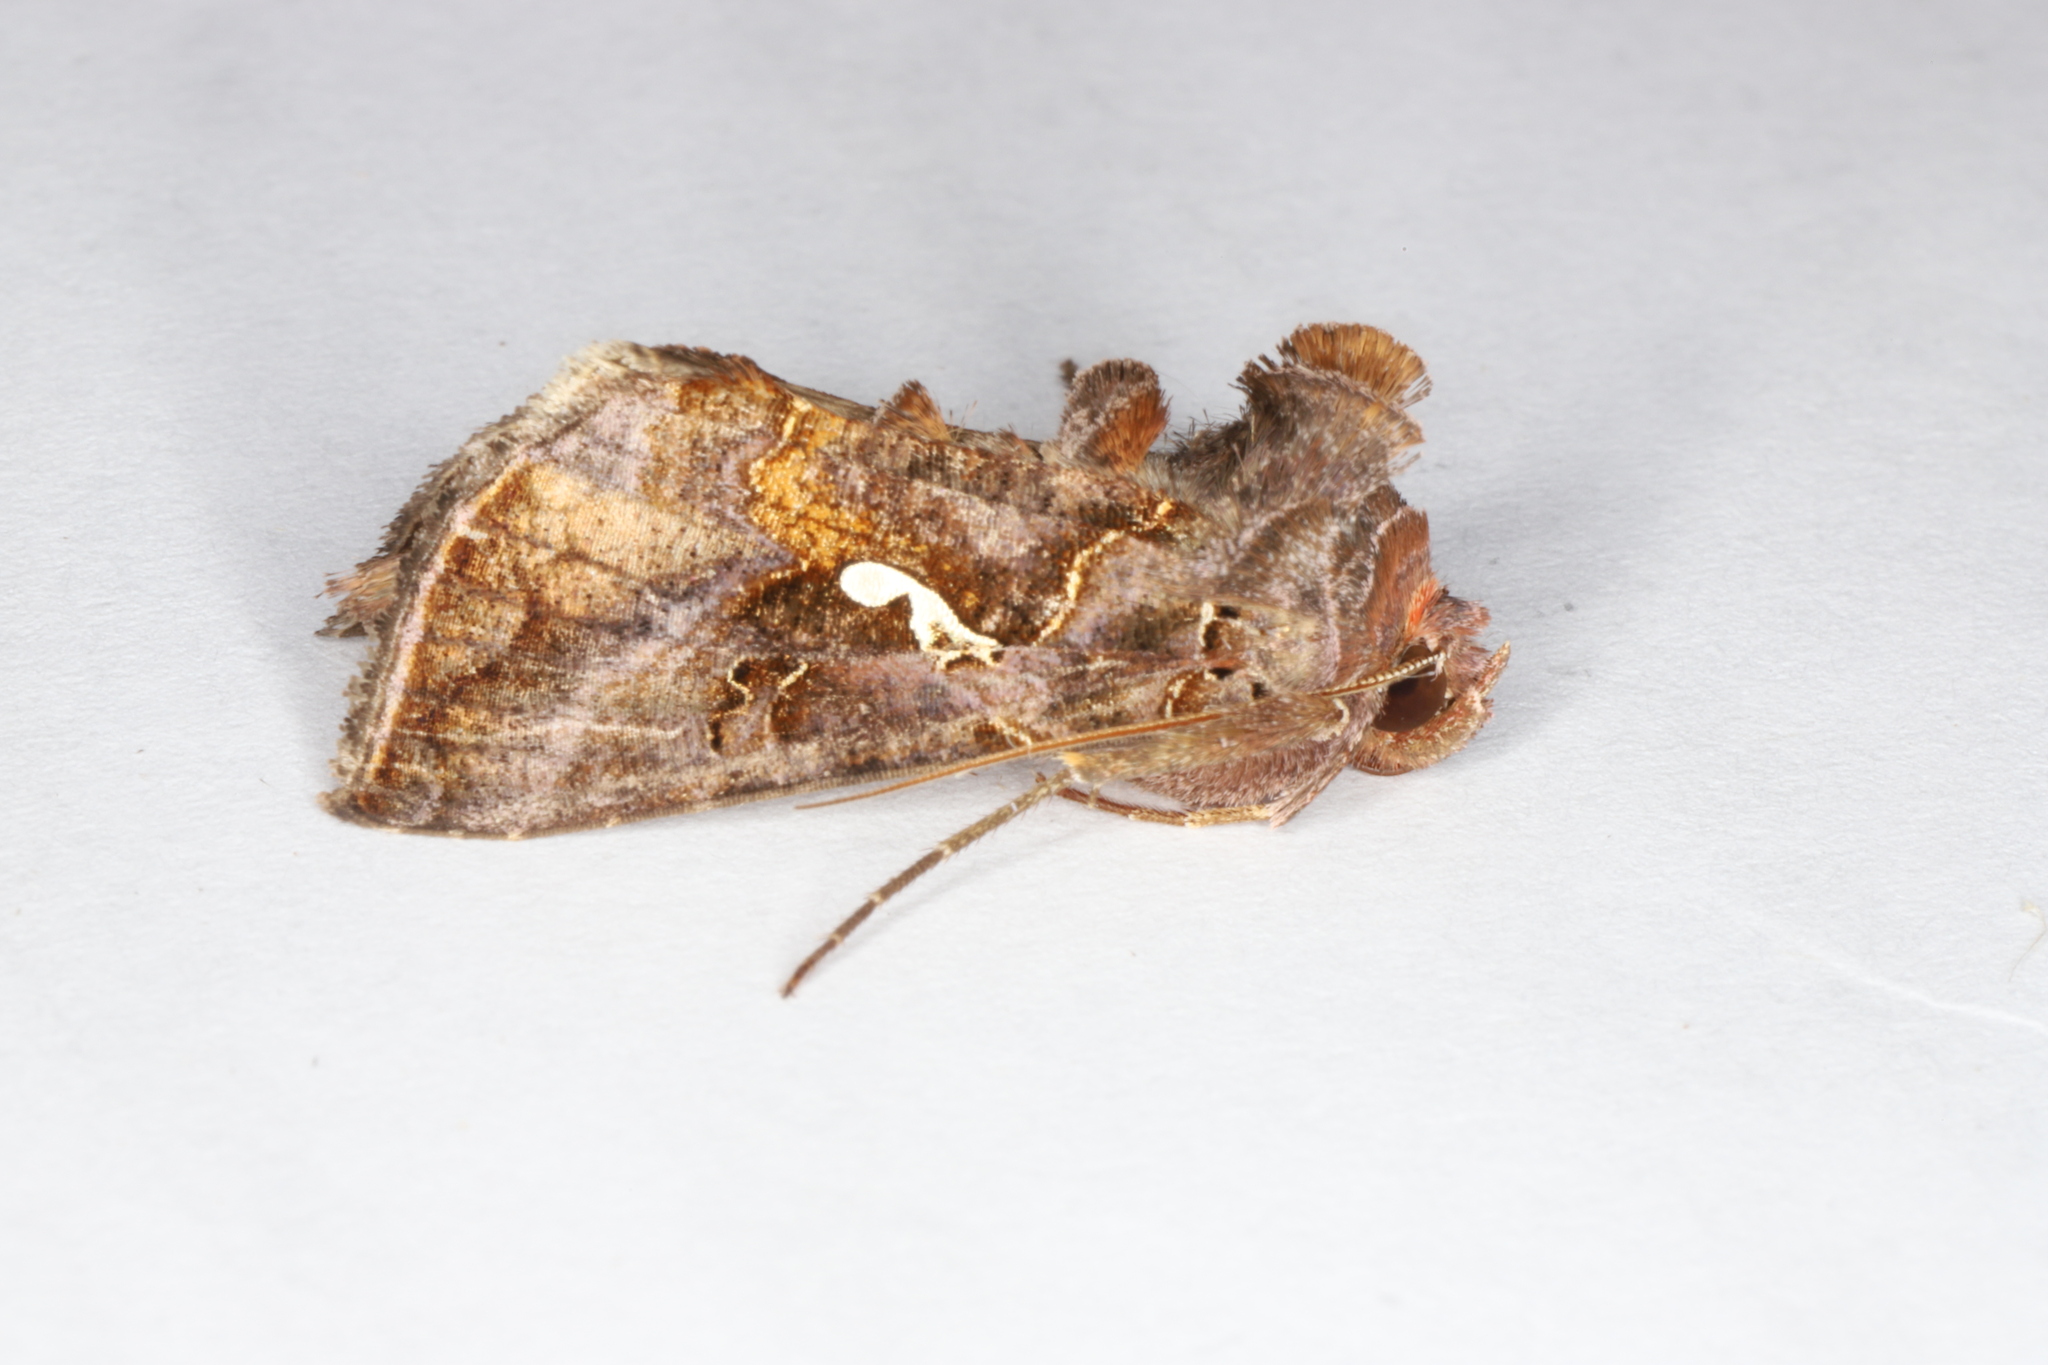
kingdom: Animalia
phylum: Arthropoda
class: Insecta
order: Lepidoptera
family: Noctuidae
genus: Autographa
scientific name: Autographa precationis
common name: Common looper moth
